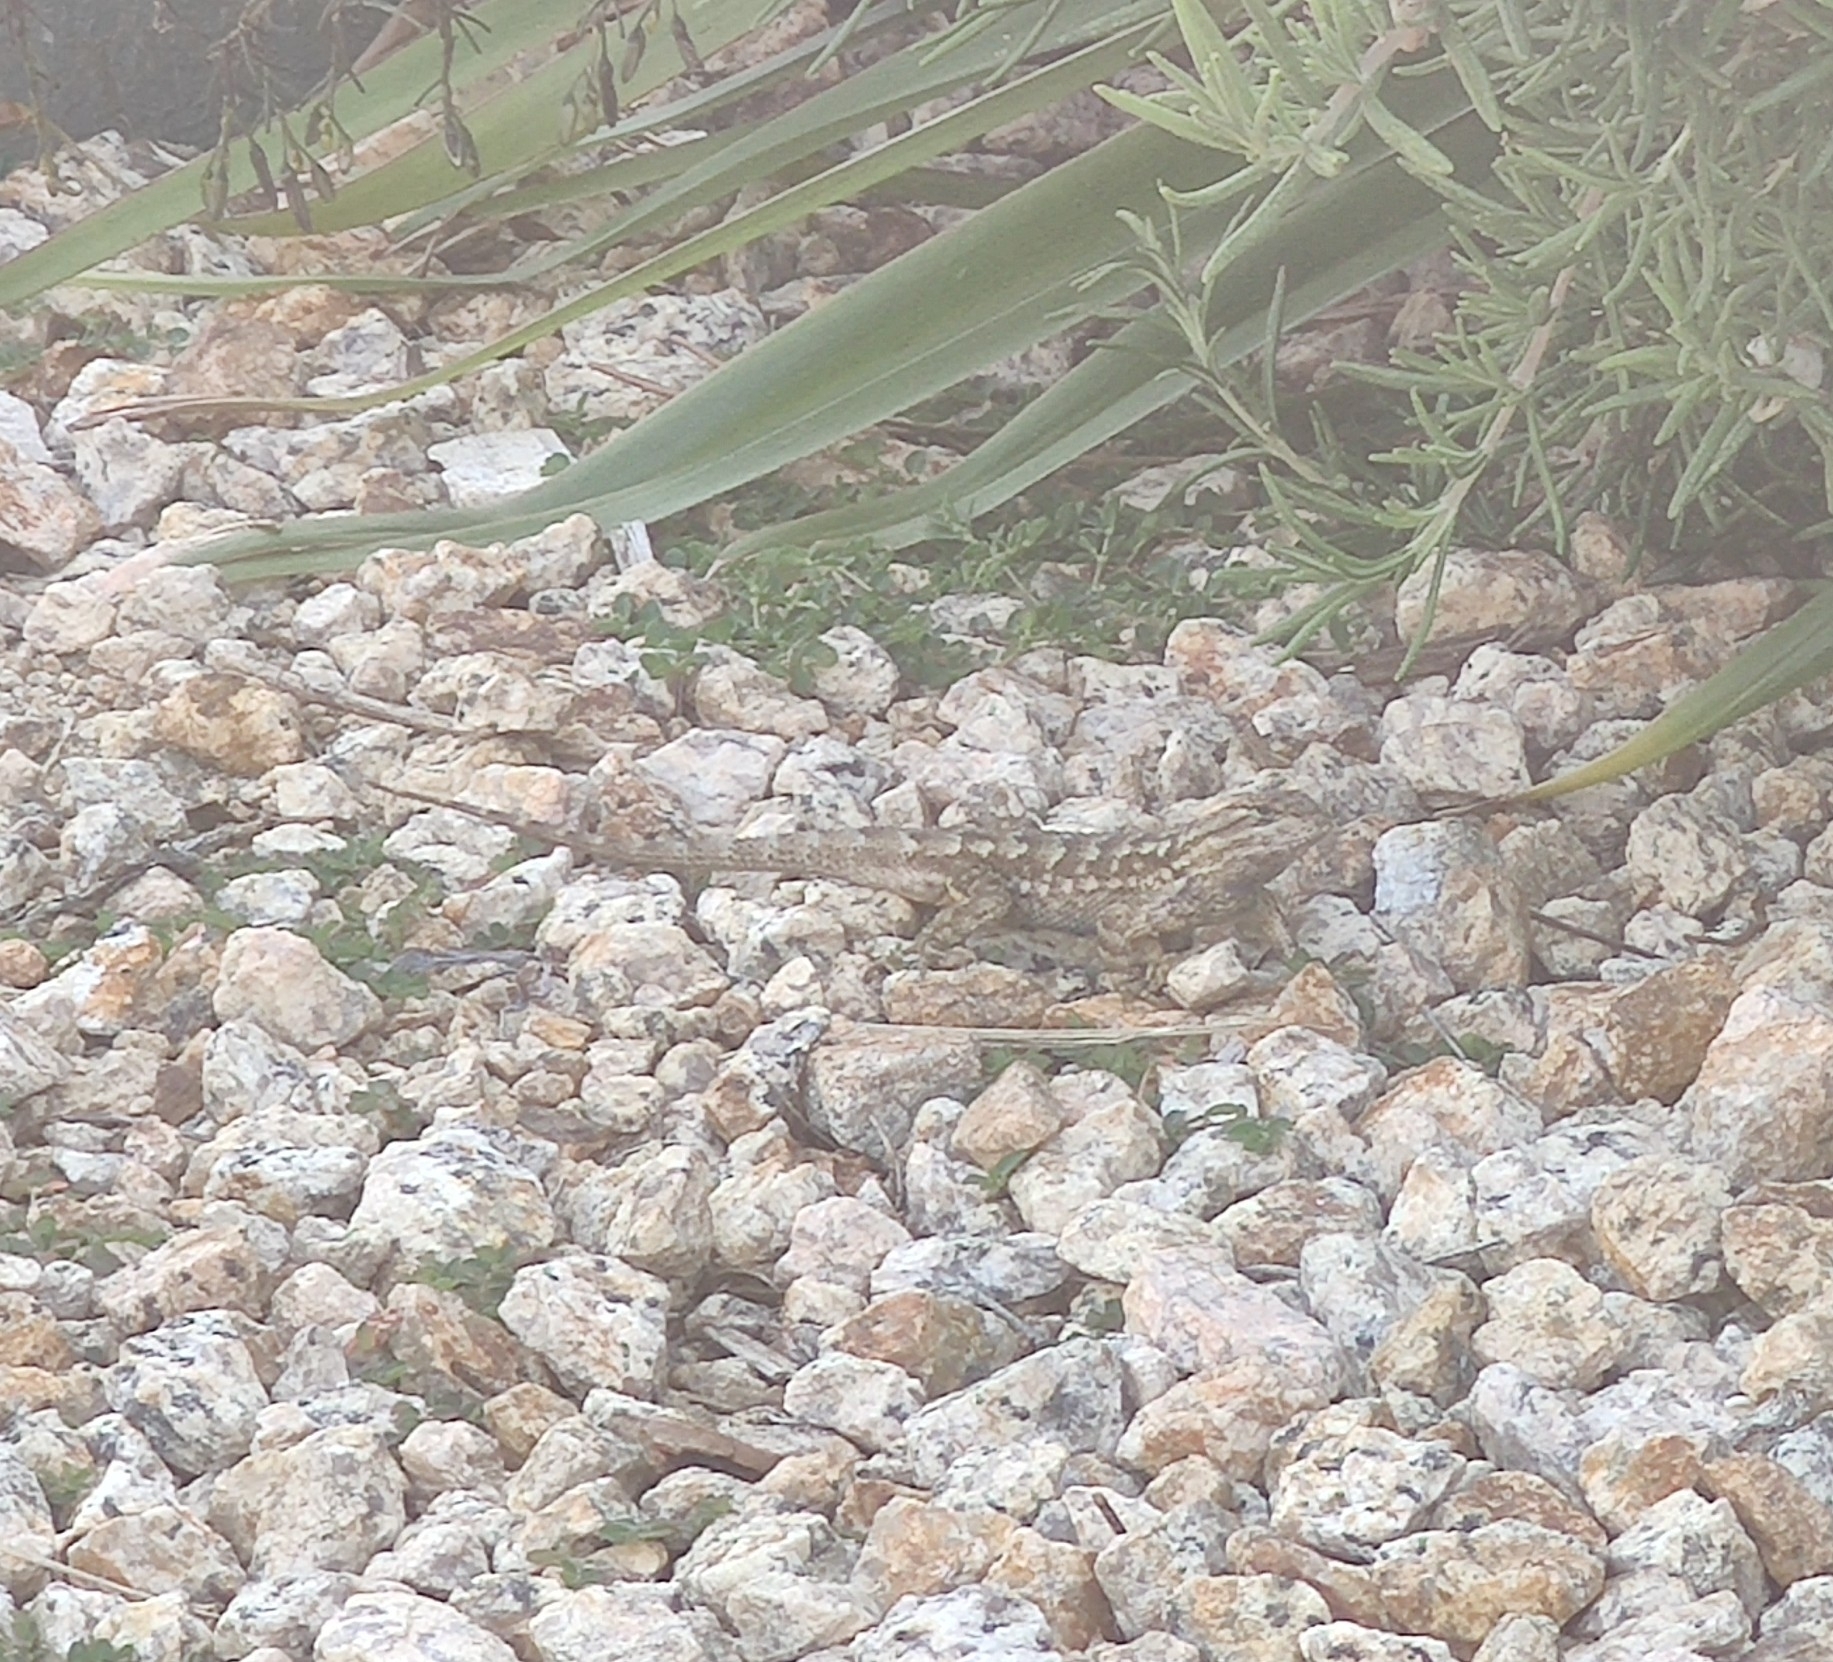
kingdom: Animalia
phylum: Chordata
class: Squamata
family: Phrynosomatidae
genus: Sceloporus
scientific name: Sceloporus occidentalis
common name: Western fence lizard
